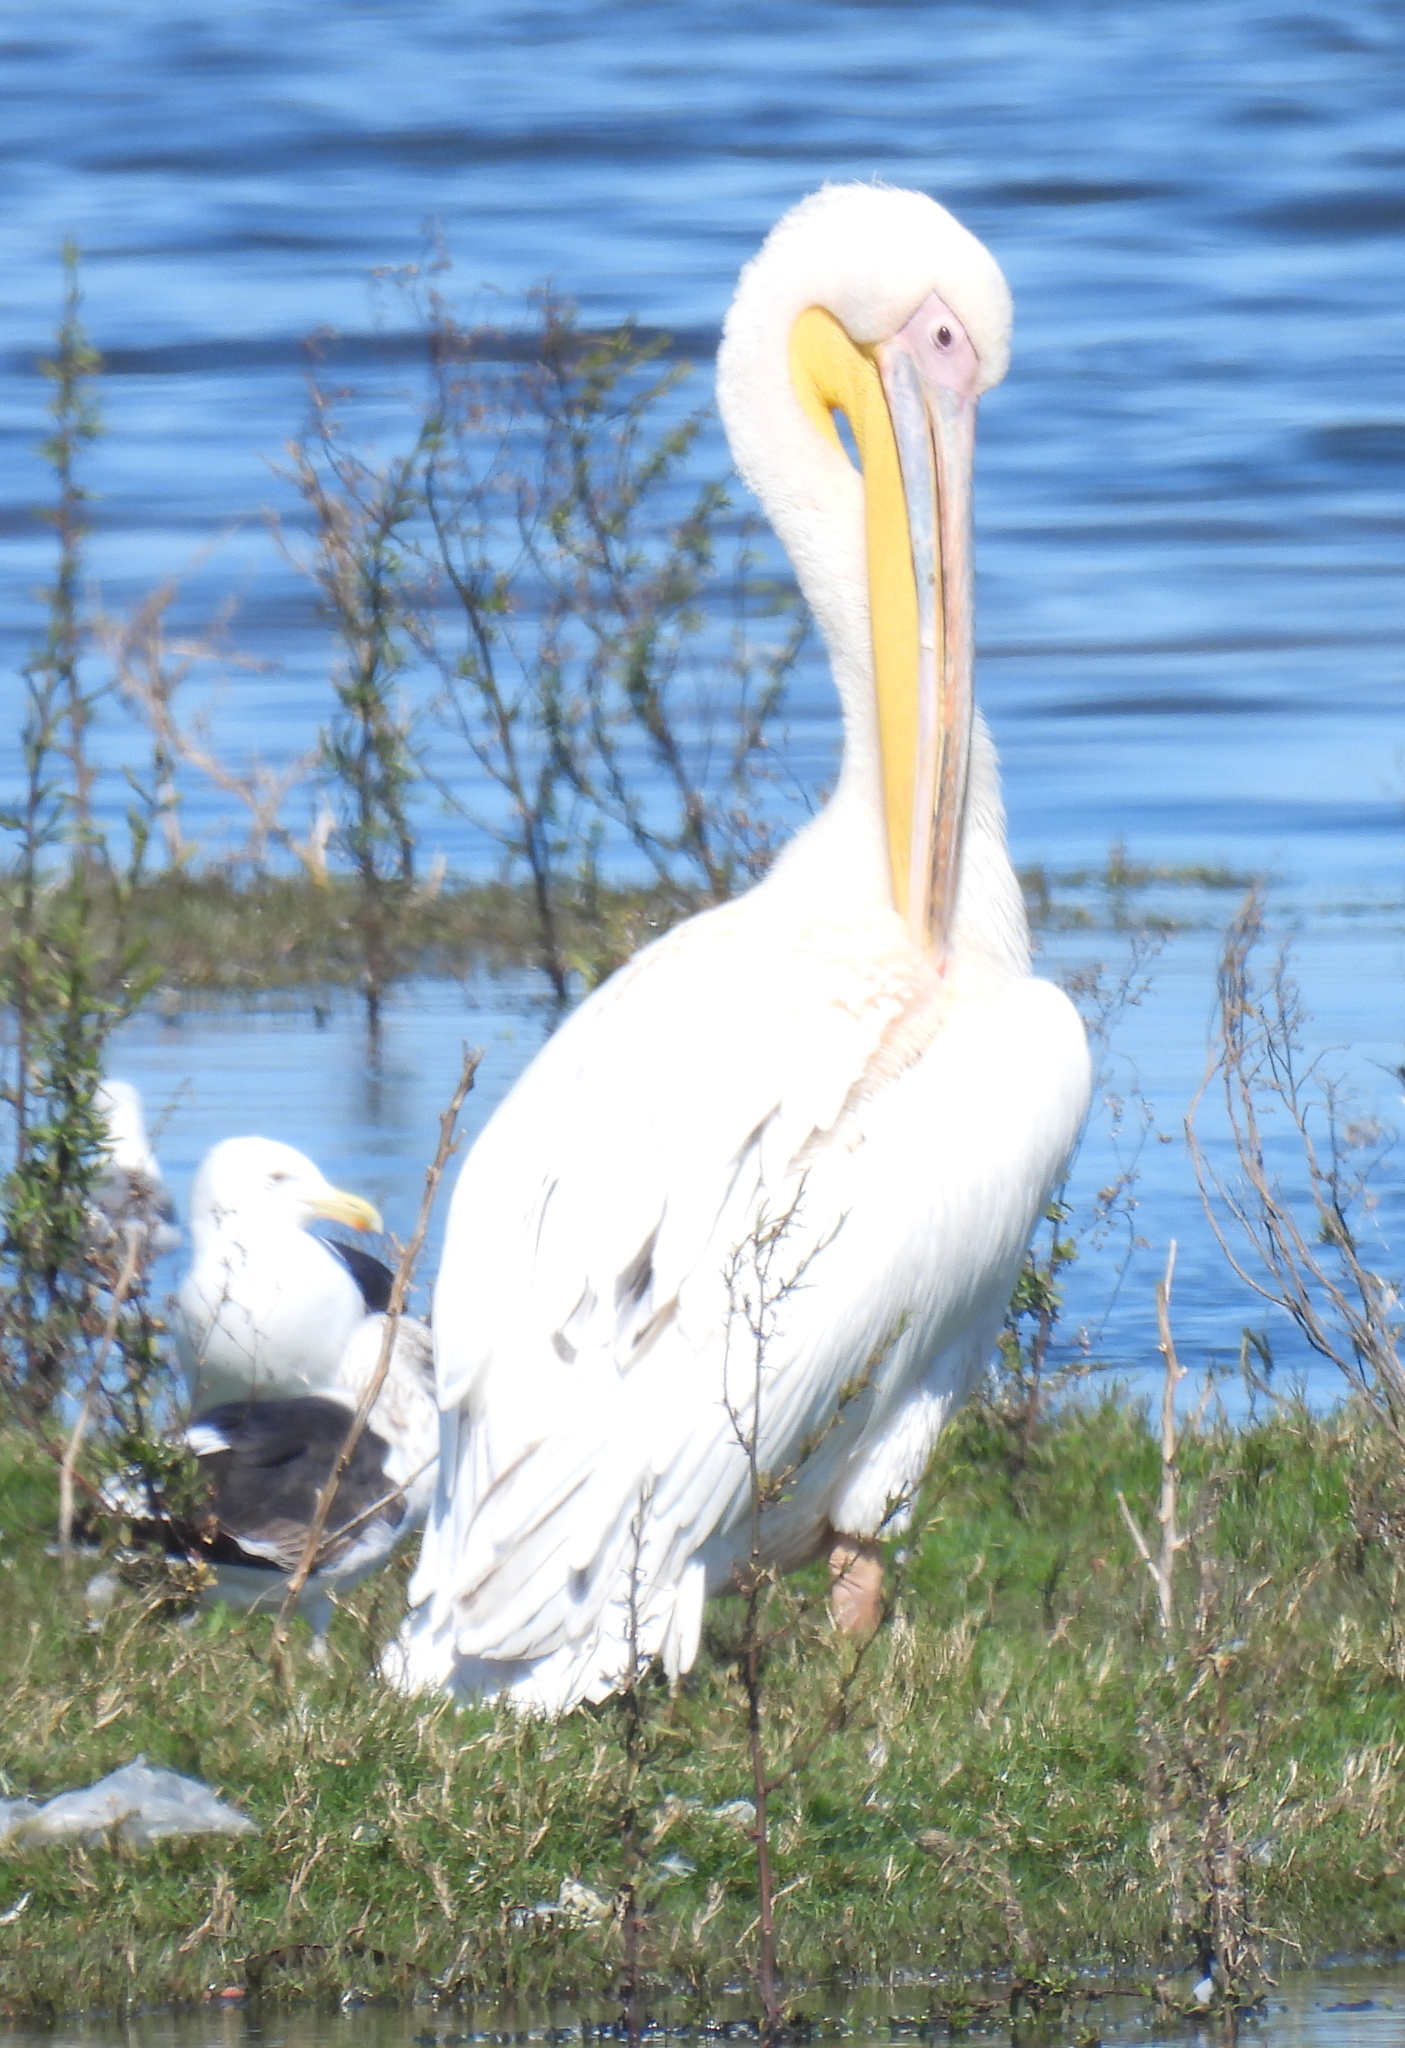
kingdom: Animalia
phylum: Chordata
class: Aves
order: Pelecaniformes
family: Pelecanidae
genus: Pelecanus
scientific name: Pelecanus onocrotalus
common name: Great white pelican
